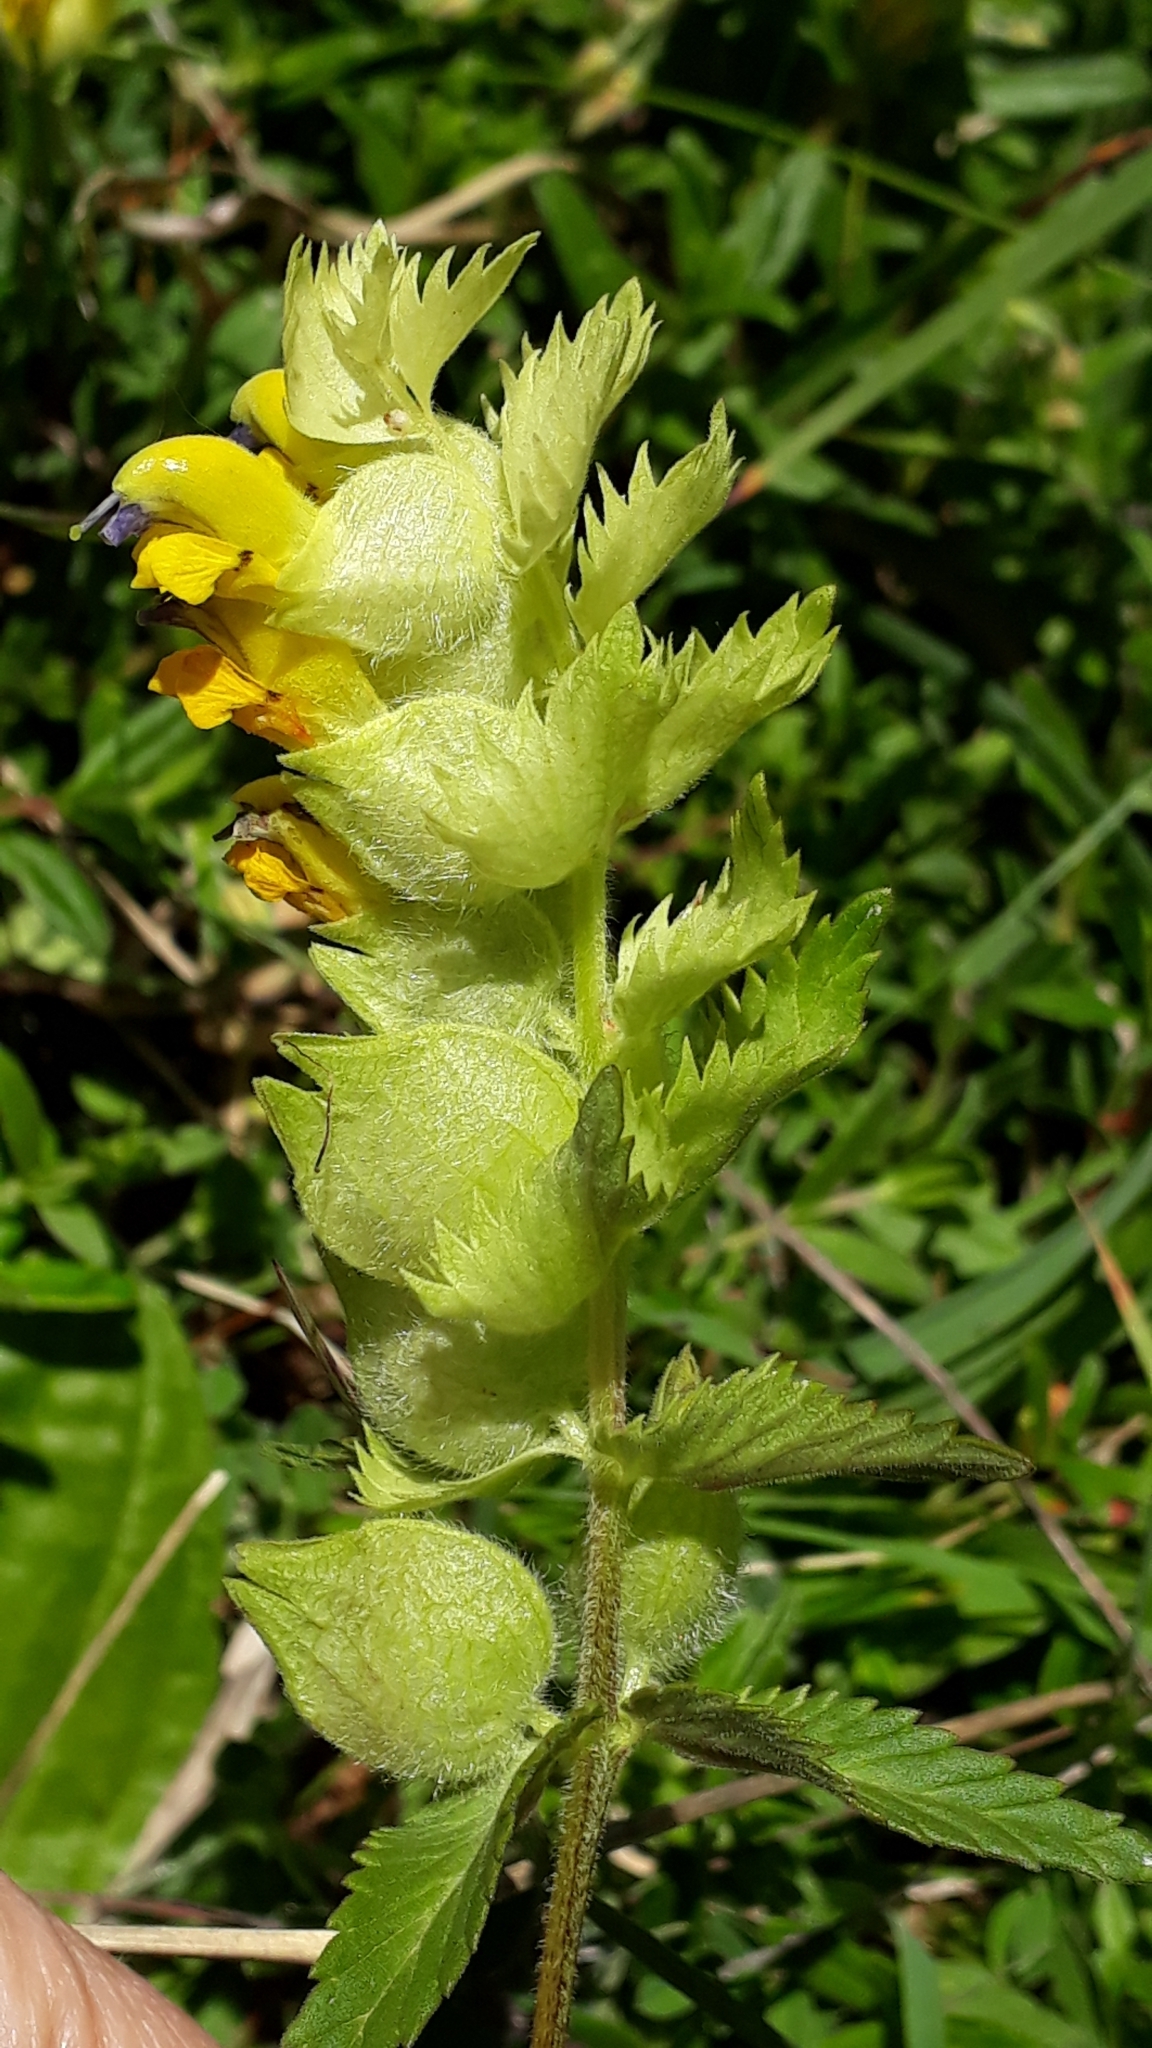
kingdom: Plantae
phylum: Tracheophyta
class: Magnoliopsida
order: Lamiales
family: Orobanchaceae
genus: Rhinanthus
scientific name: Rhinanthus alectorolophus
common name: Greater yellow-rattle
